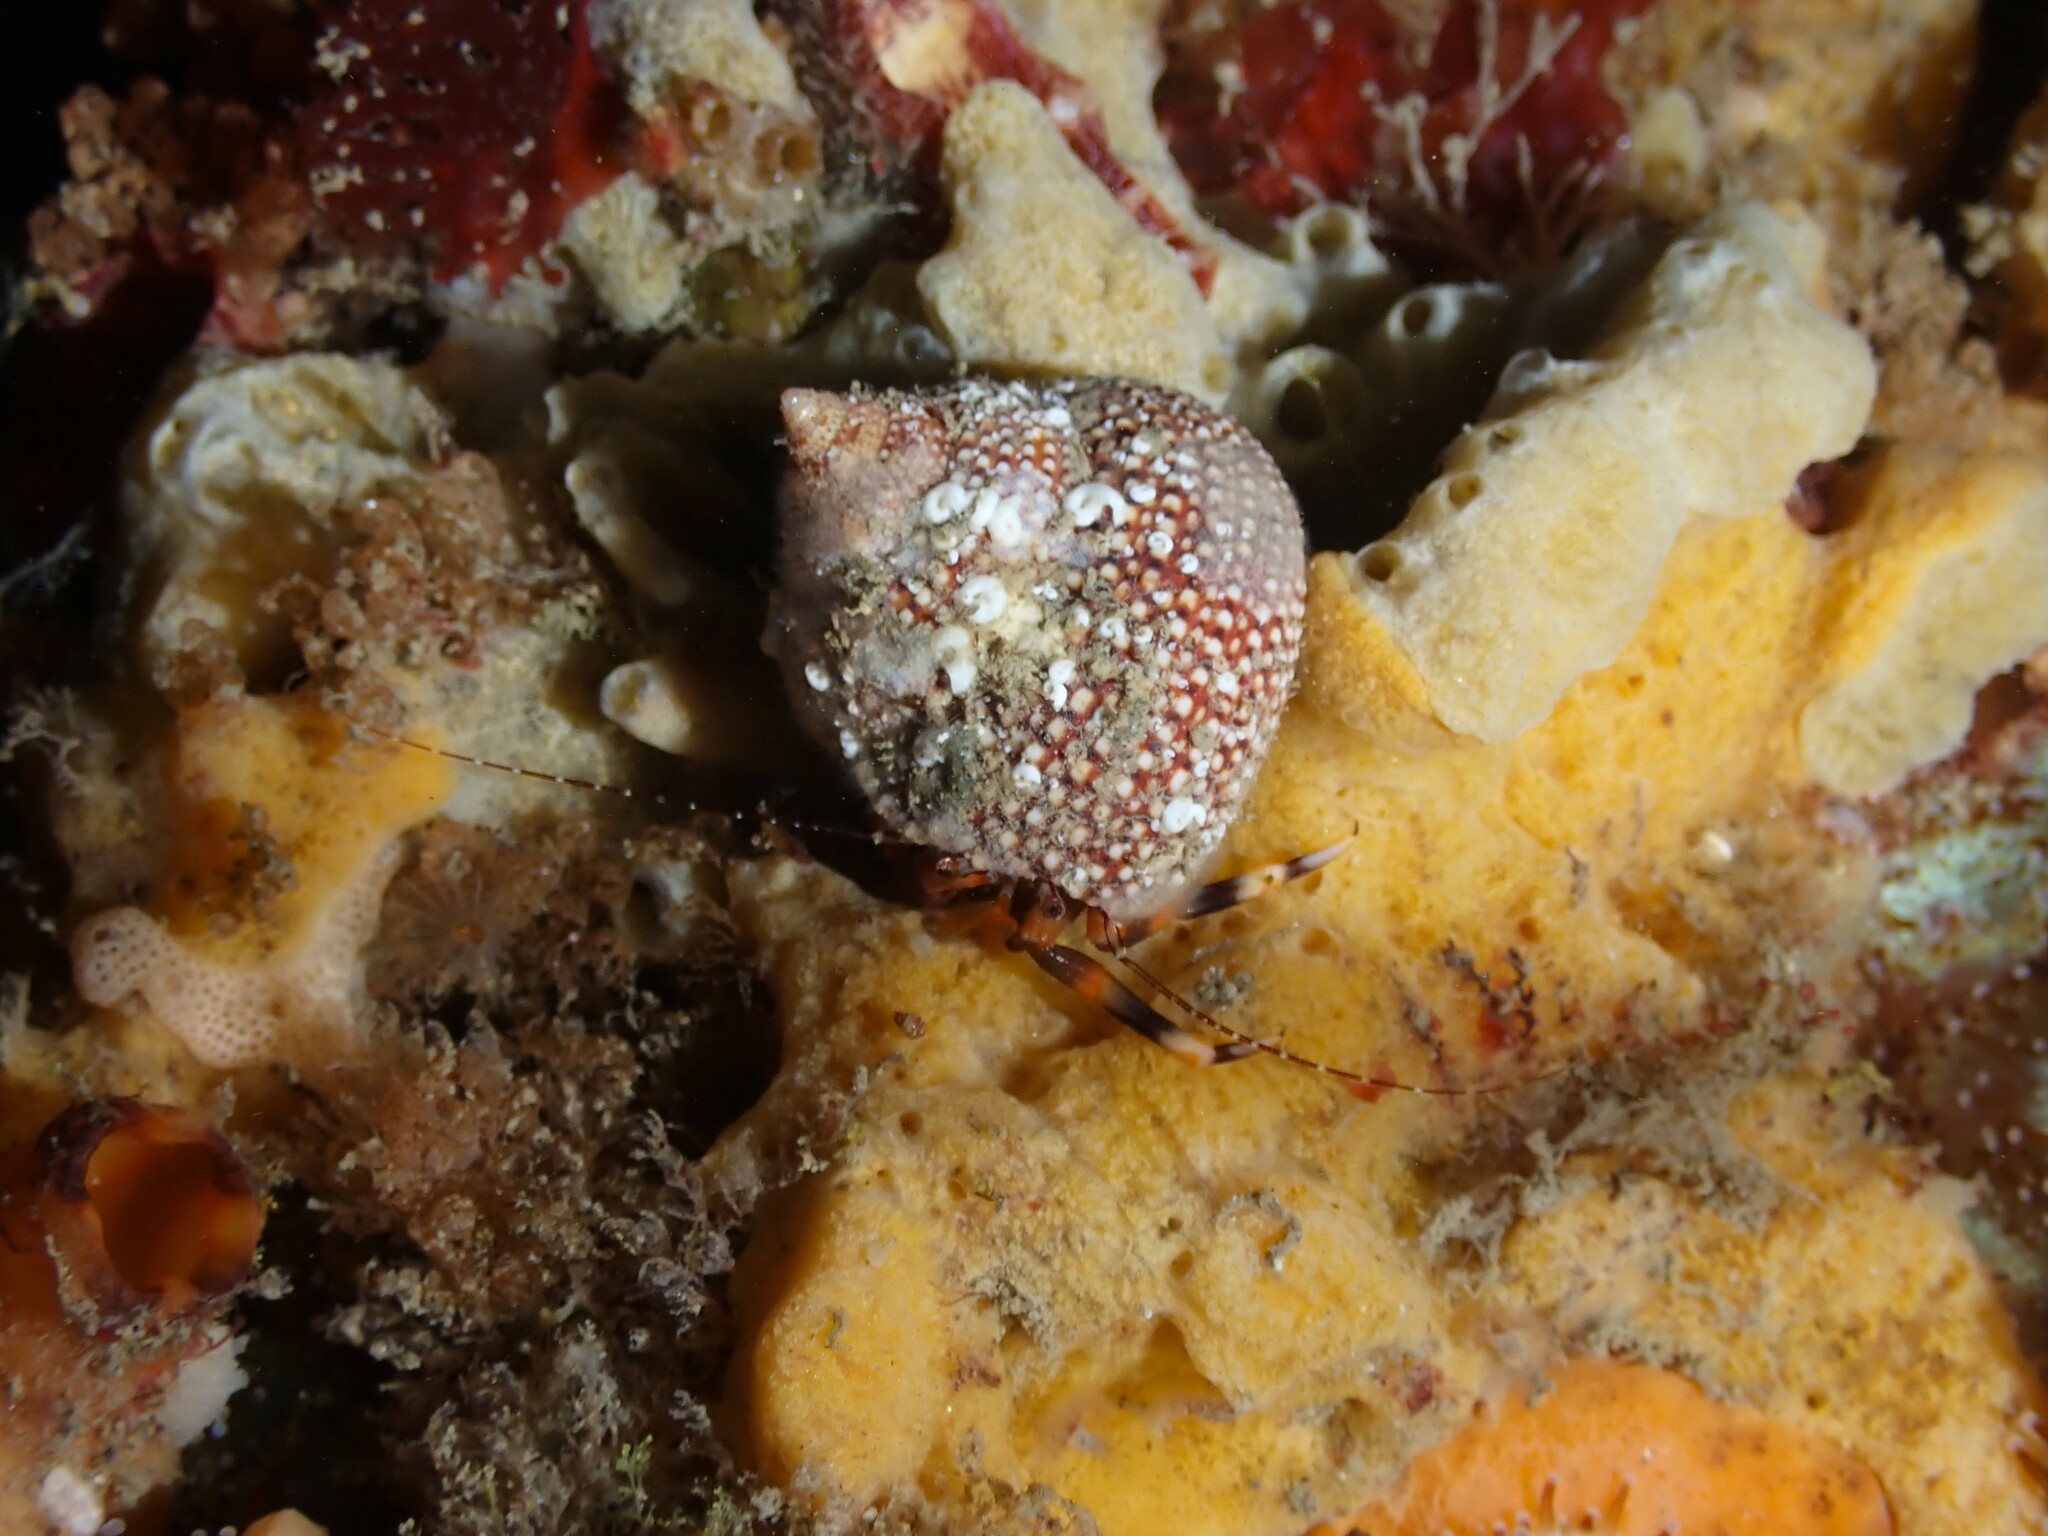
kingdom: Animalia
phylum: Arthropoda
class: Malacostraca
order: Decapoda
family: Paguridae
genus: Pagurixus
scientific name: Pagurixus hectori
